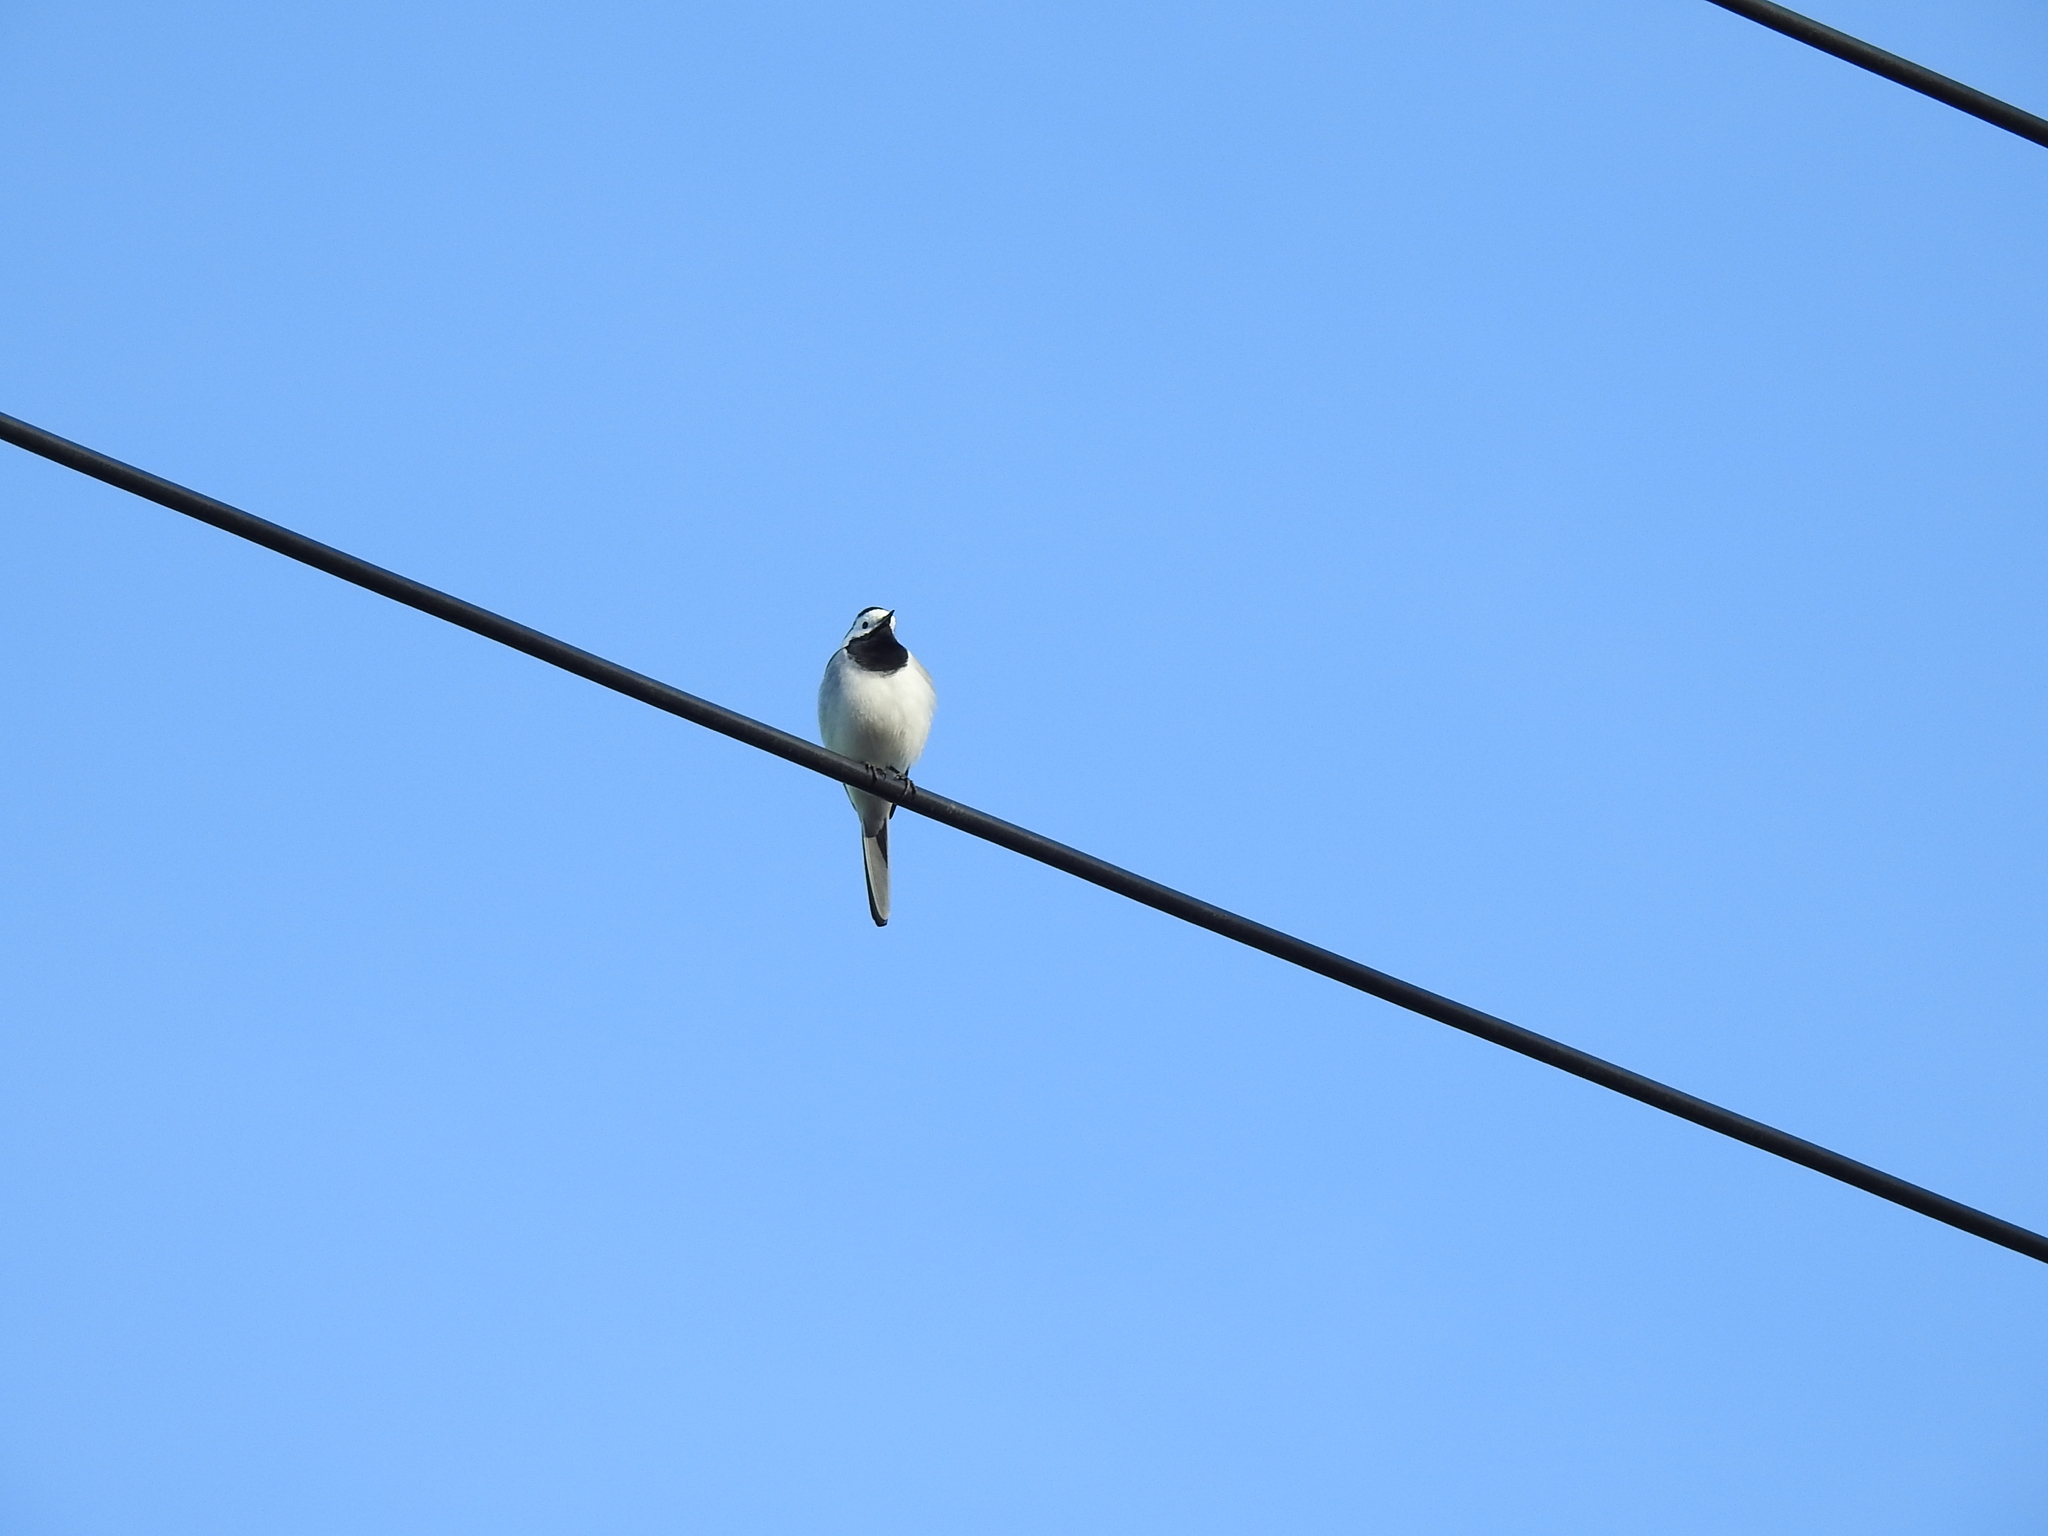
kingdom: Animalia
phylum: Chordata
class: Aves
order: Passeriformes
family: Motacillidae
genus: Motacilla
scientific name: Motacilla alba
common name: White wagtail
